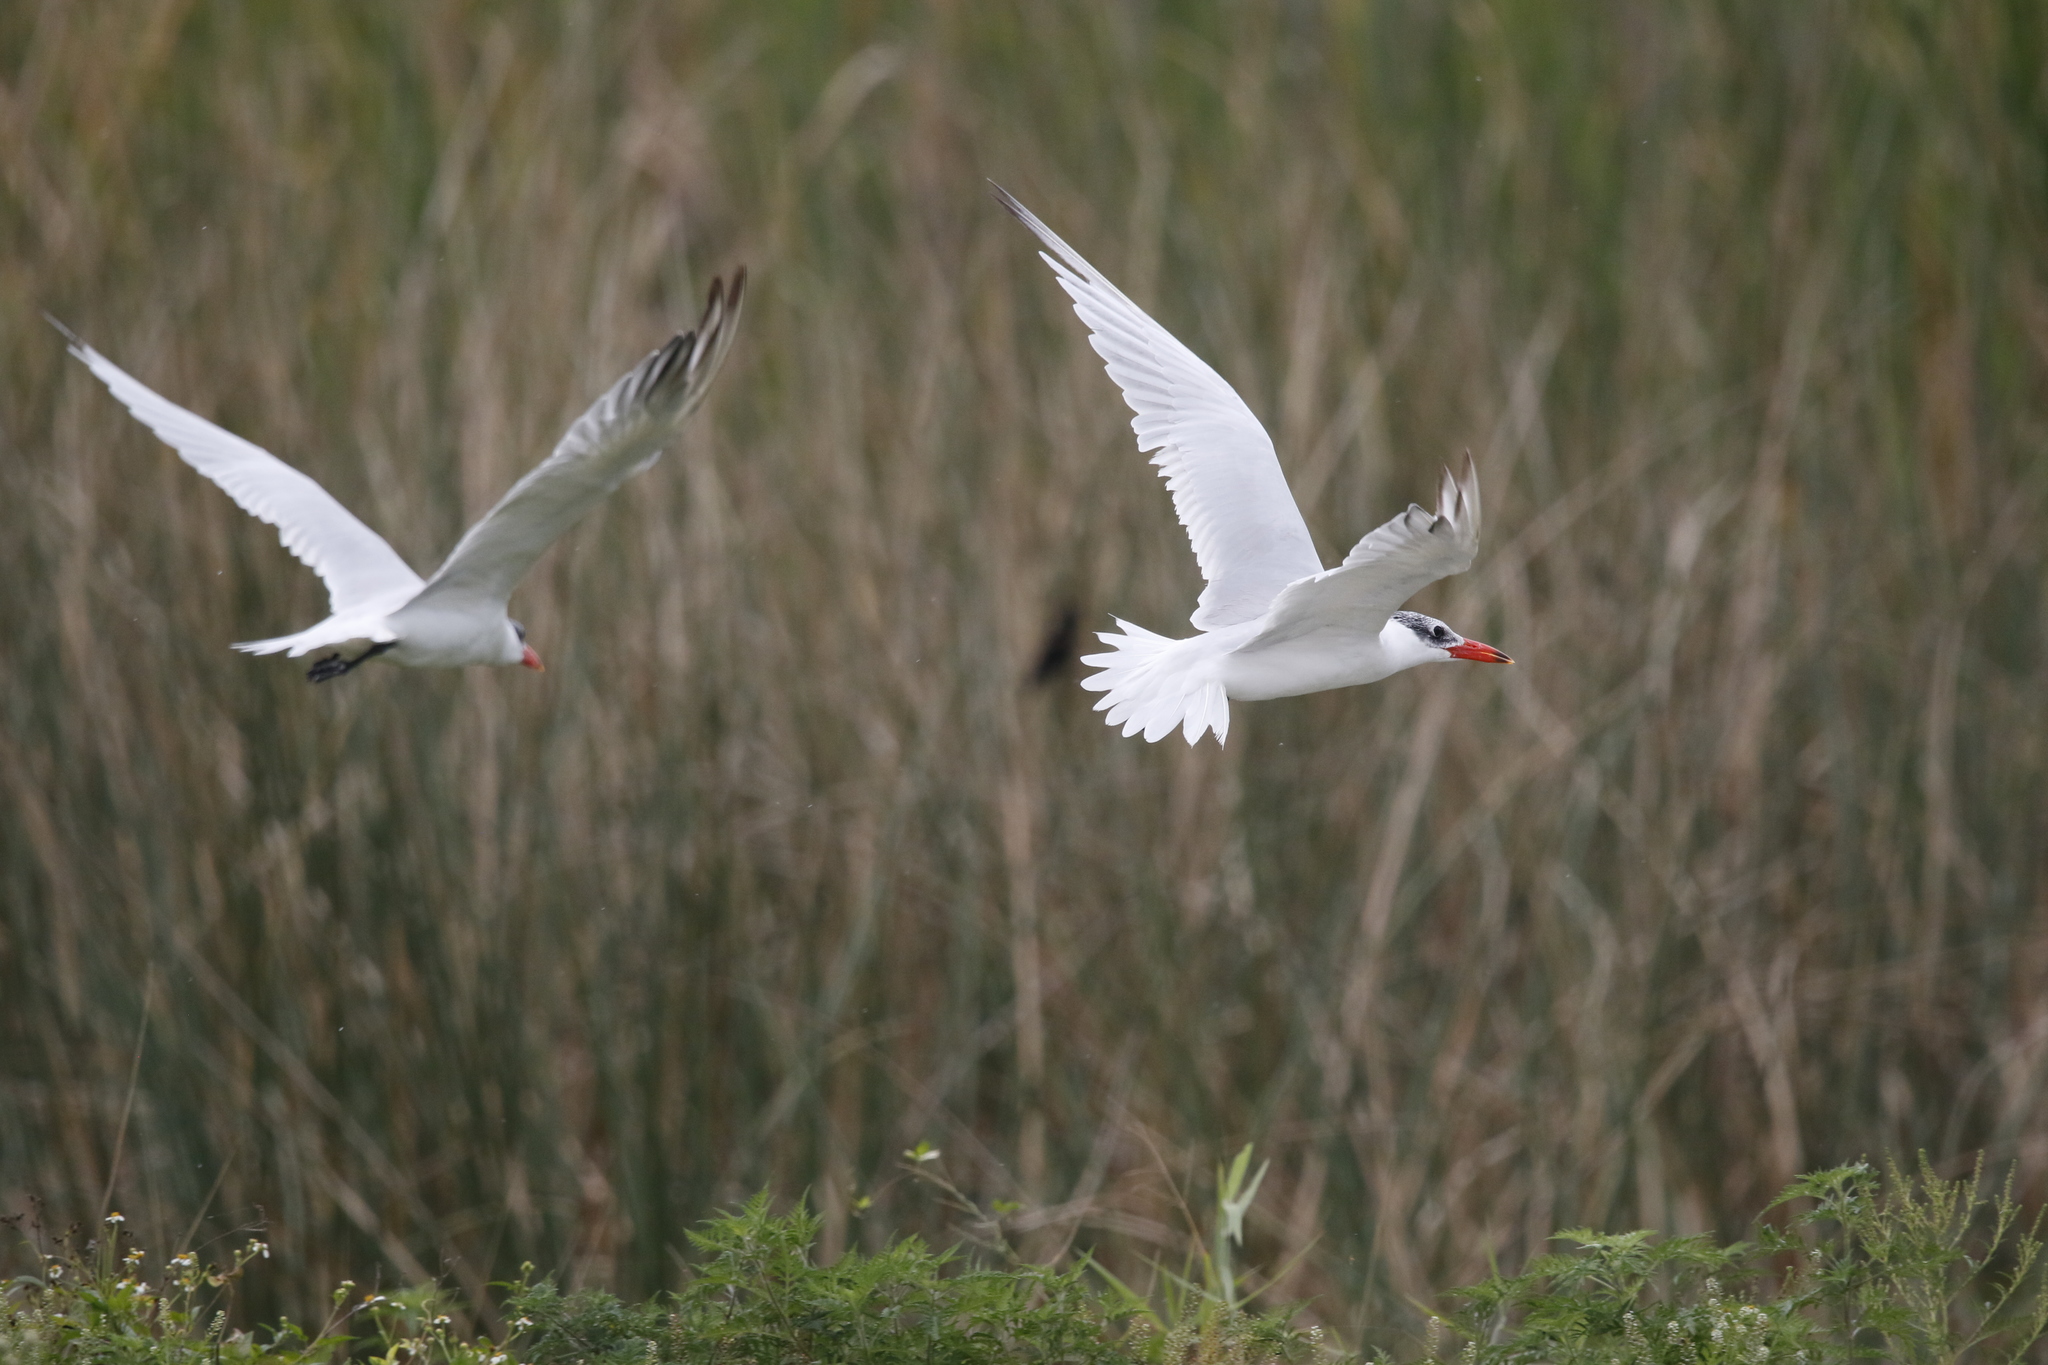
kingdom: Animalia
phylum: Chordata
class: Aves
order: Charadriiformes
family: Laridae
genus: Hydroprogne
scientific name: Hydroprogne caspia
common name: Caspian tern
